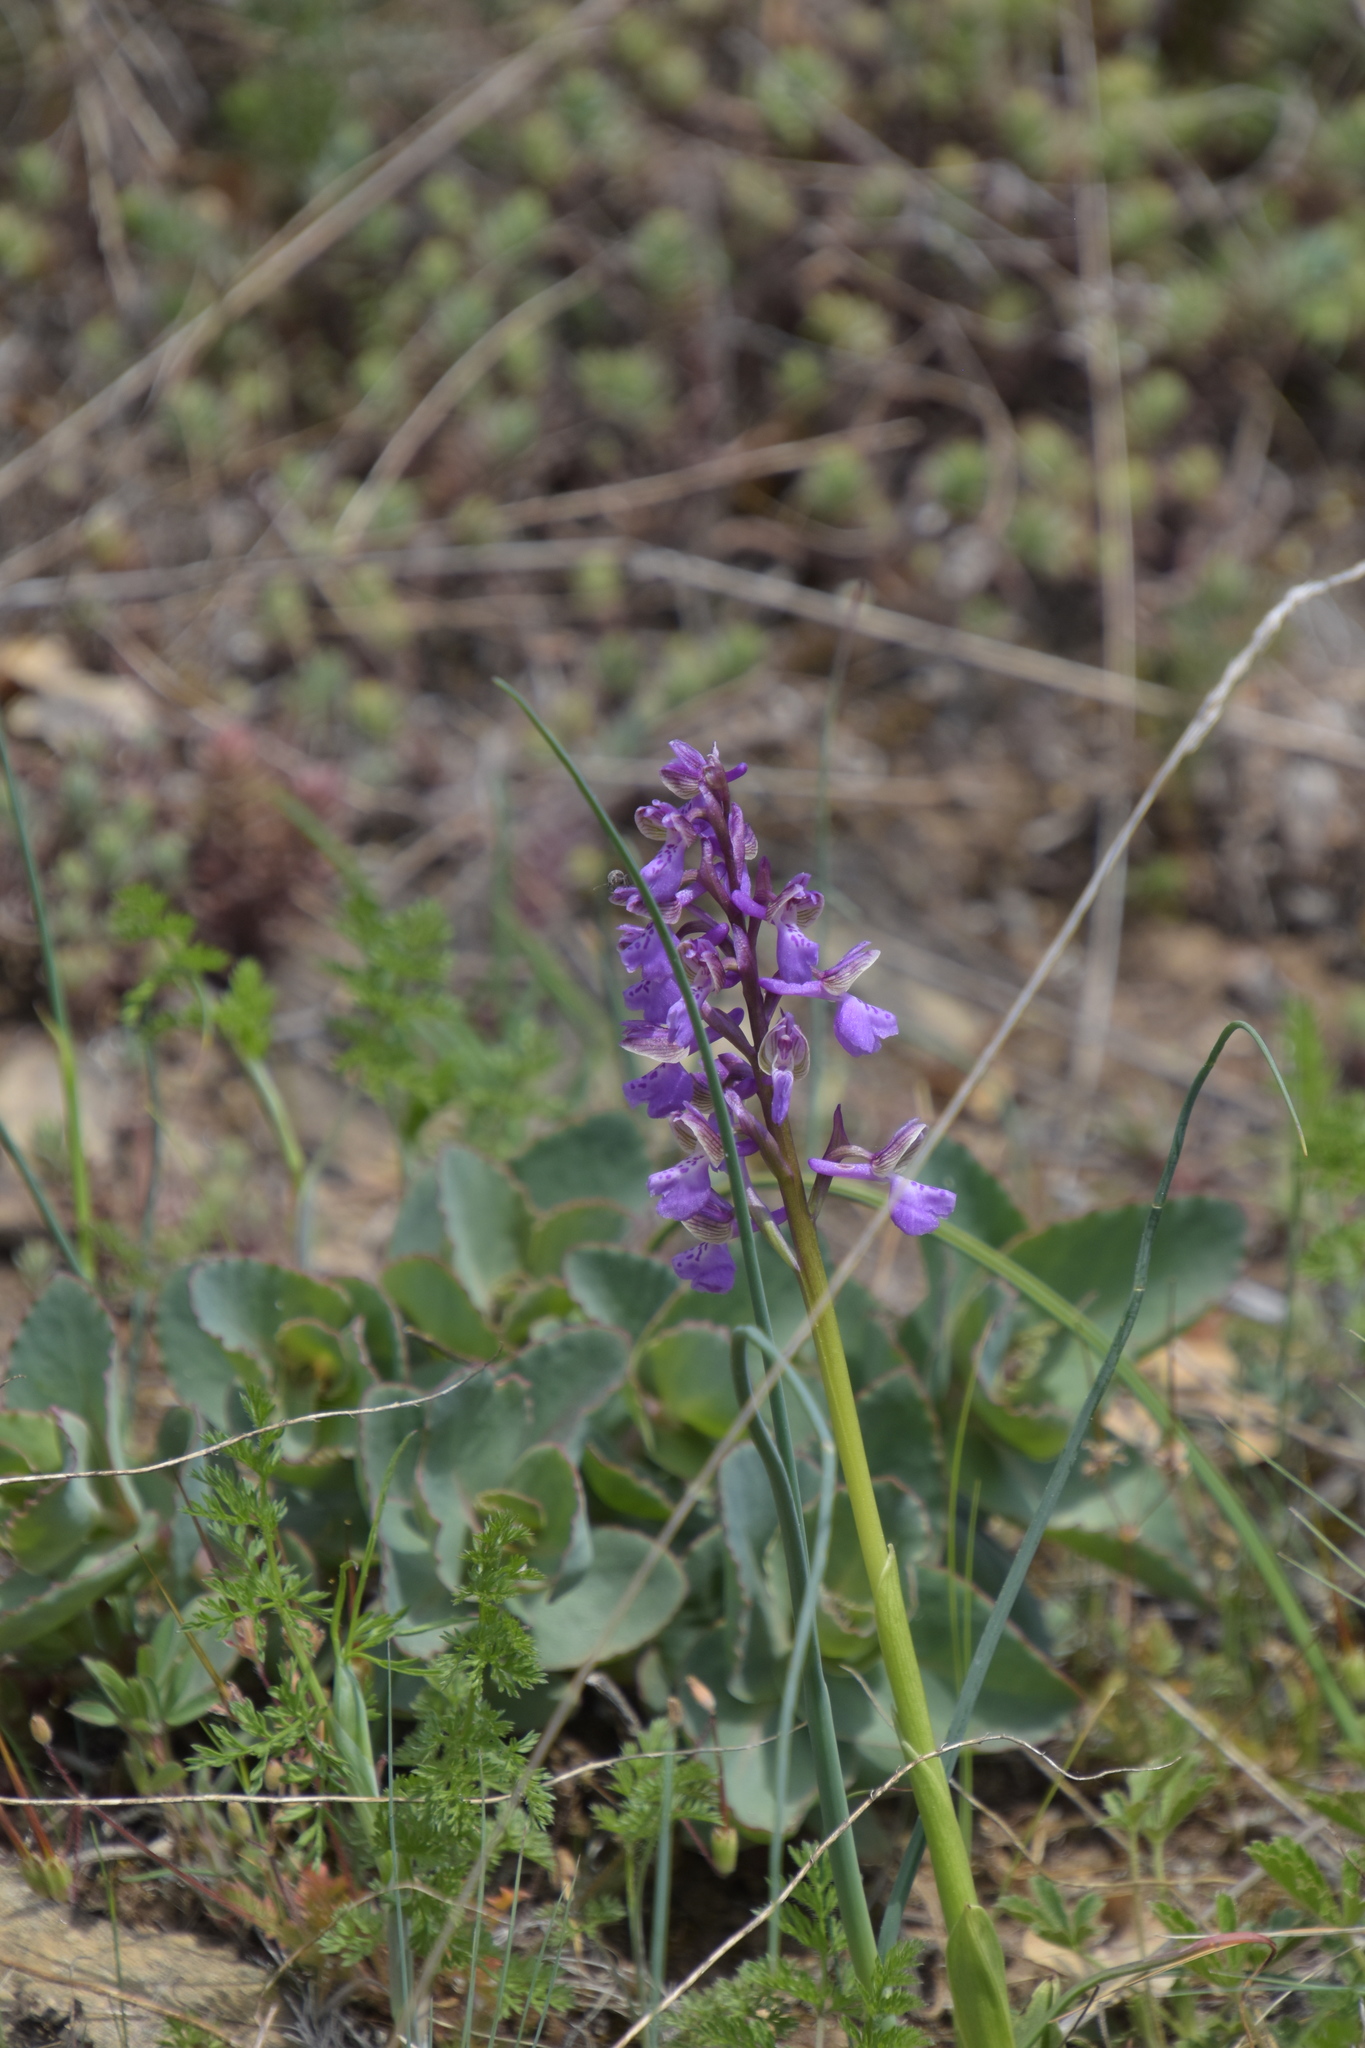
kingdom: Plantae
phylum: Tracheophyta
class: Liliopsida
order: Asparagales
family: Orchidaceae
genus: Anacamptis
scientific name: Anacamptis morio
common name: Green-winged orchid
